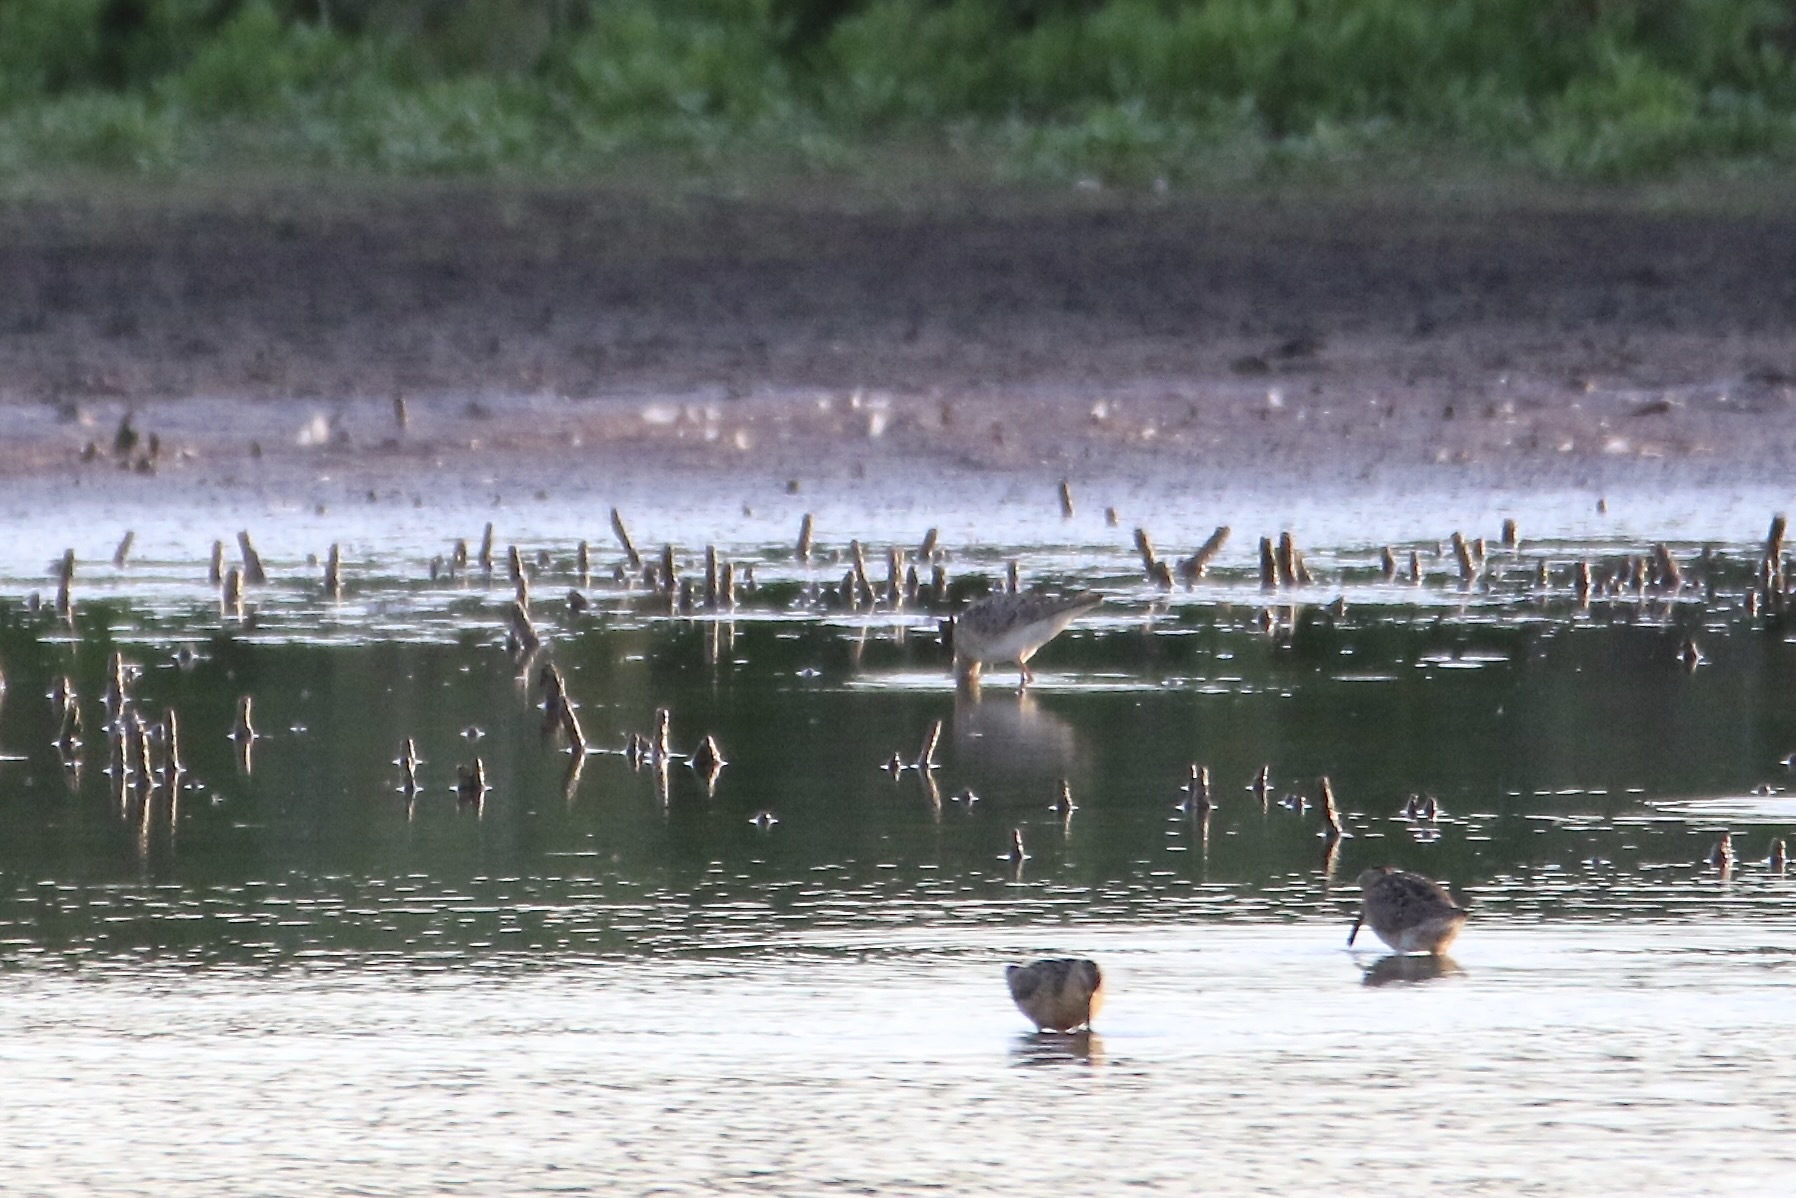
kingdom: Animalia
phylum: Chordata
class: Aves
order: Charadriiformes
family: Scolopacidae
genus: Calidris
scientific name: Calidris pugnax
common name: Ruff
